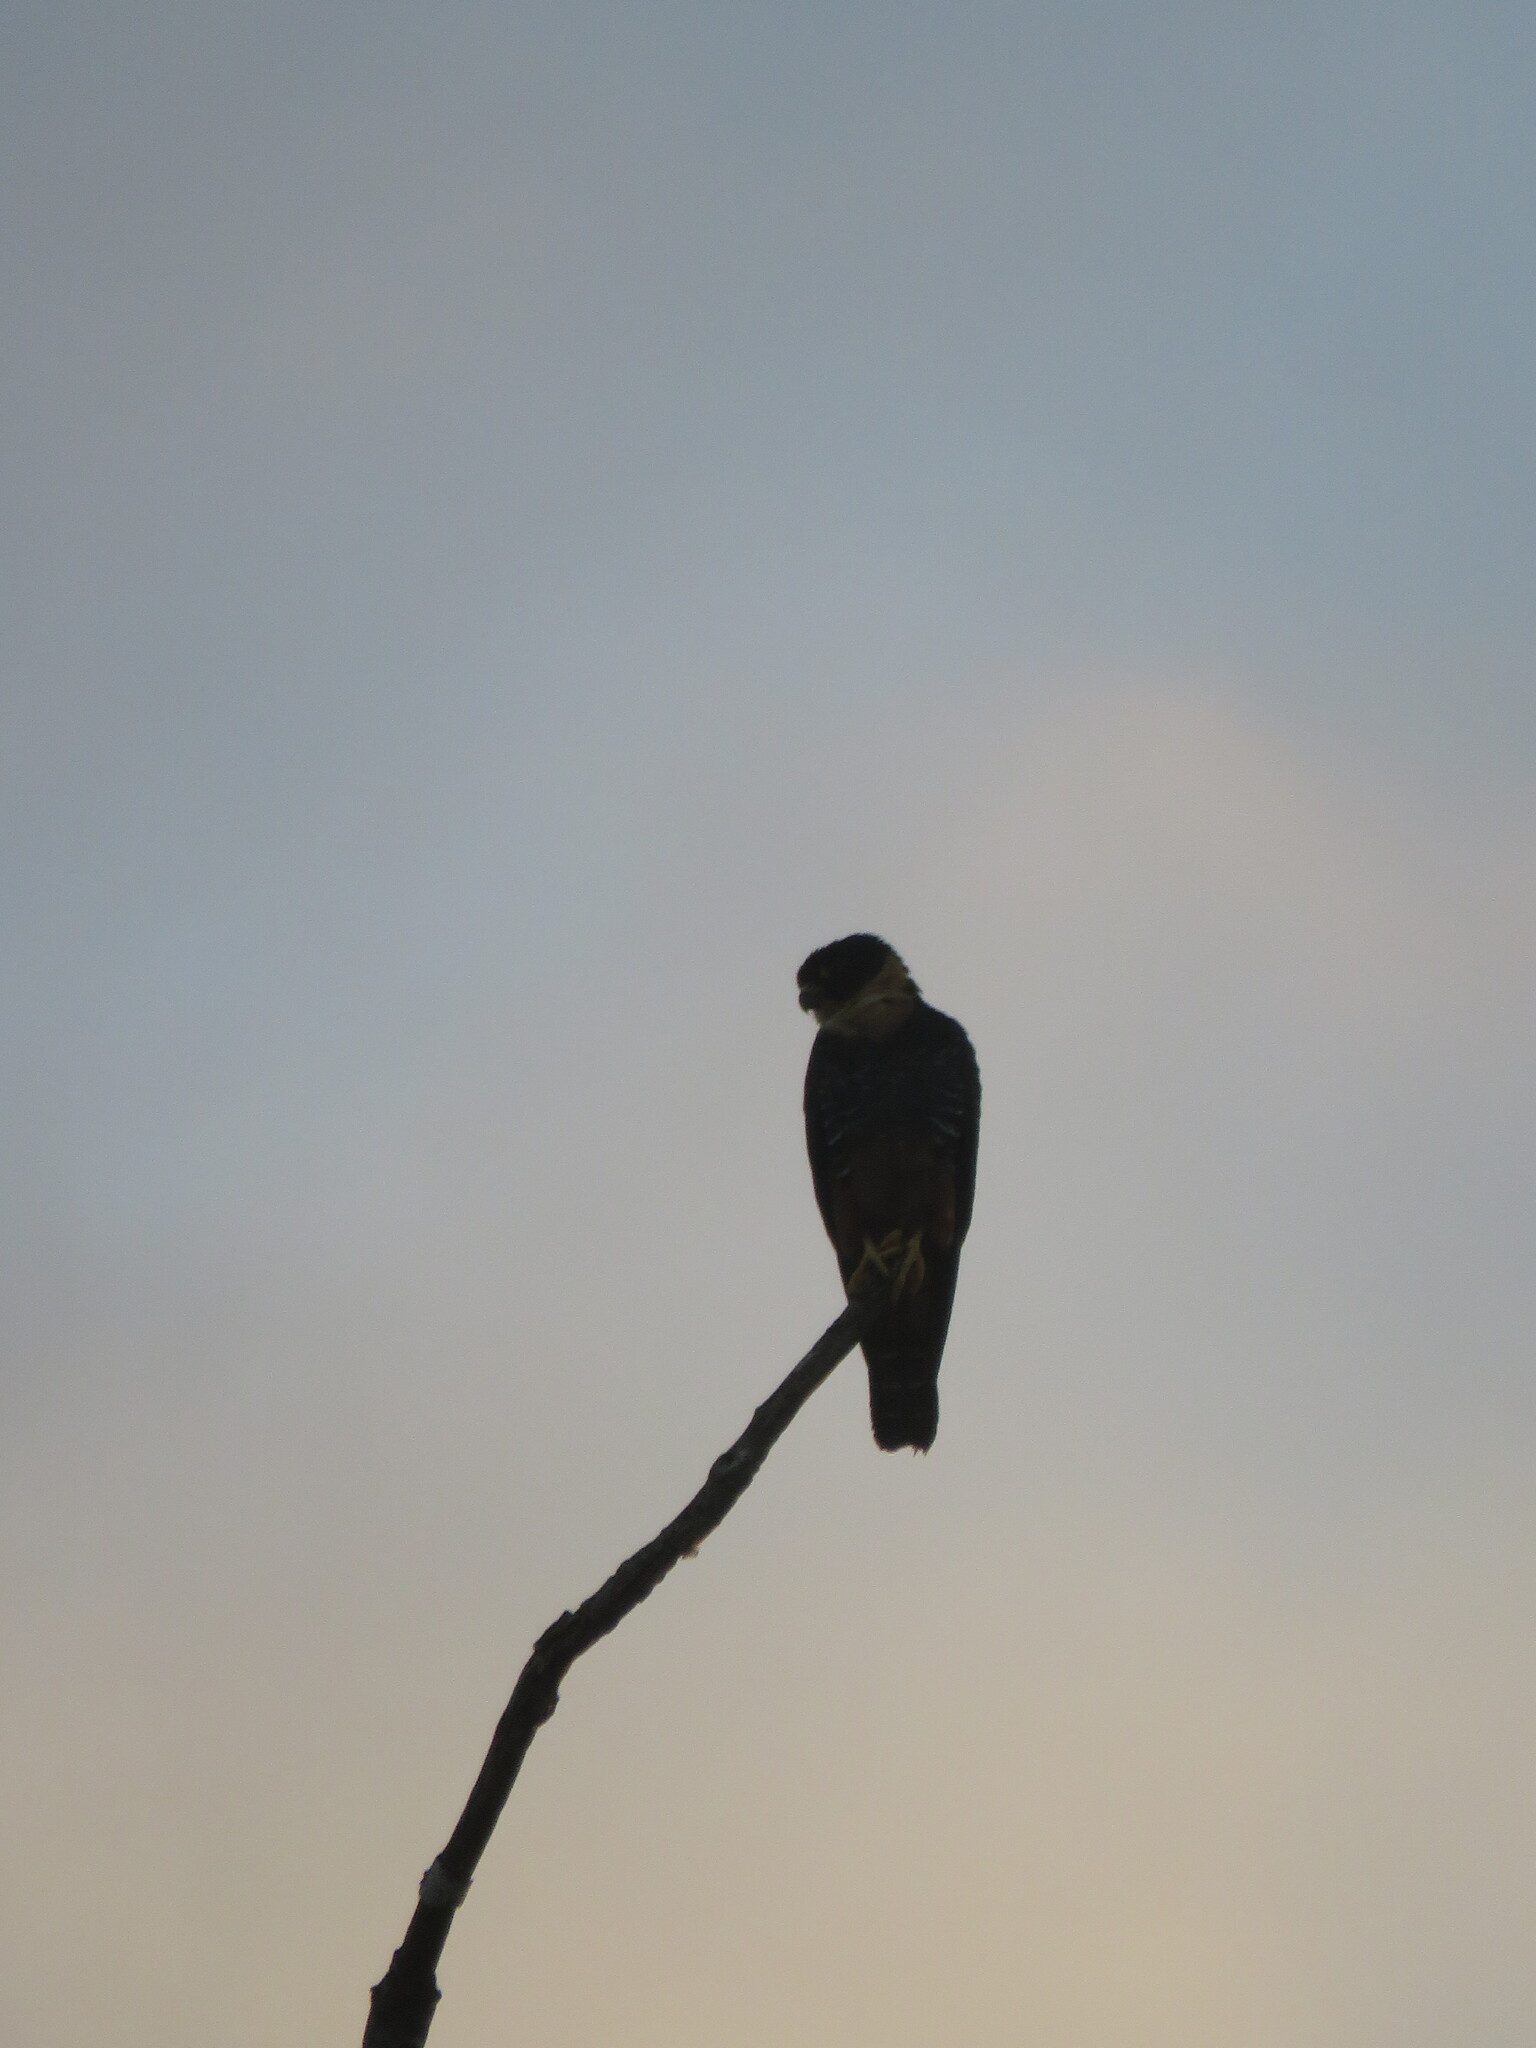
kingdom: Animalia
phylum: Chordata
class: Aves
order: Falconiformes
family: Falconidae
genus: Falco
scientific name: Falco rufigularis
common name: Bat falcon
